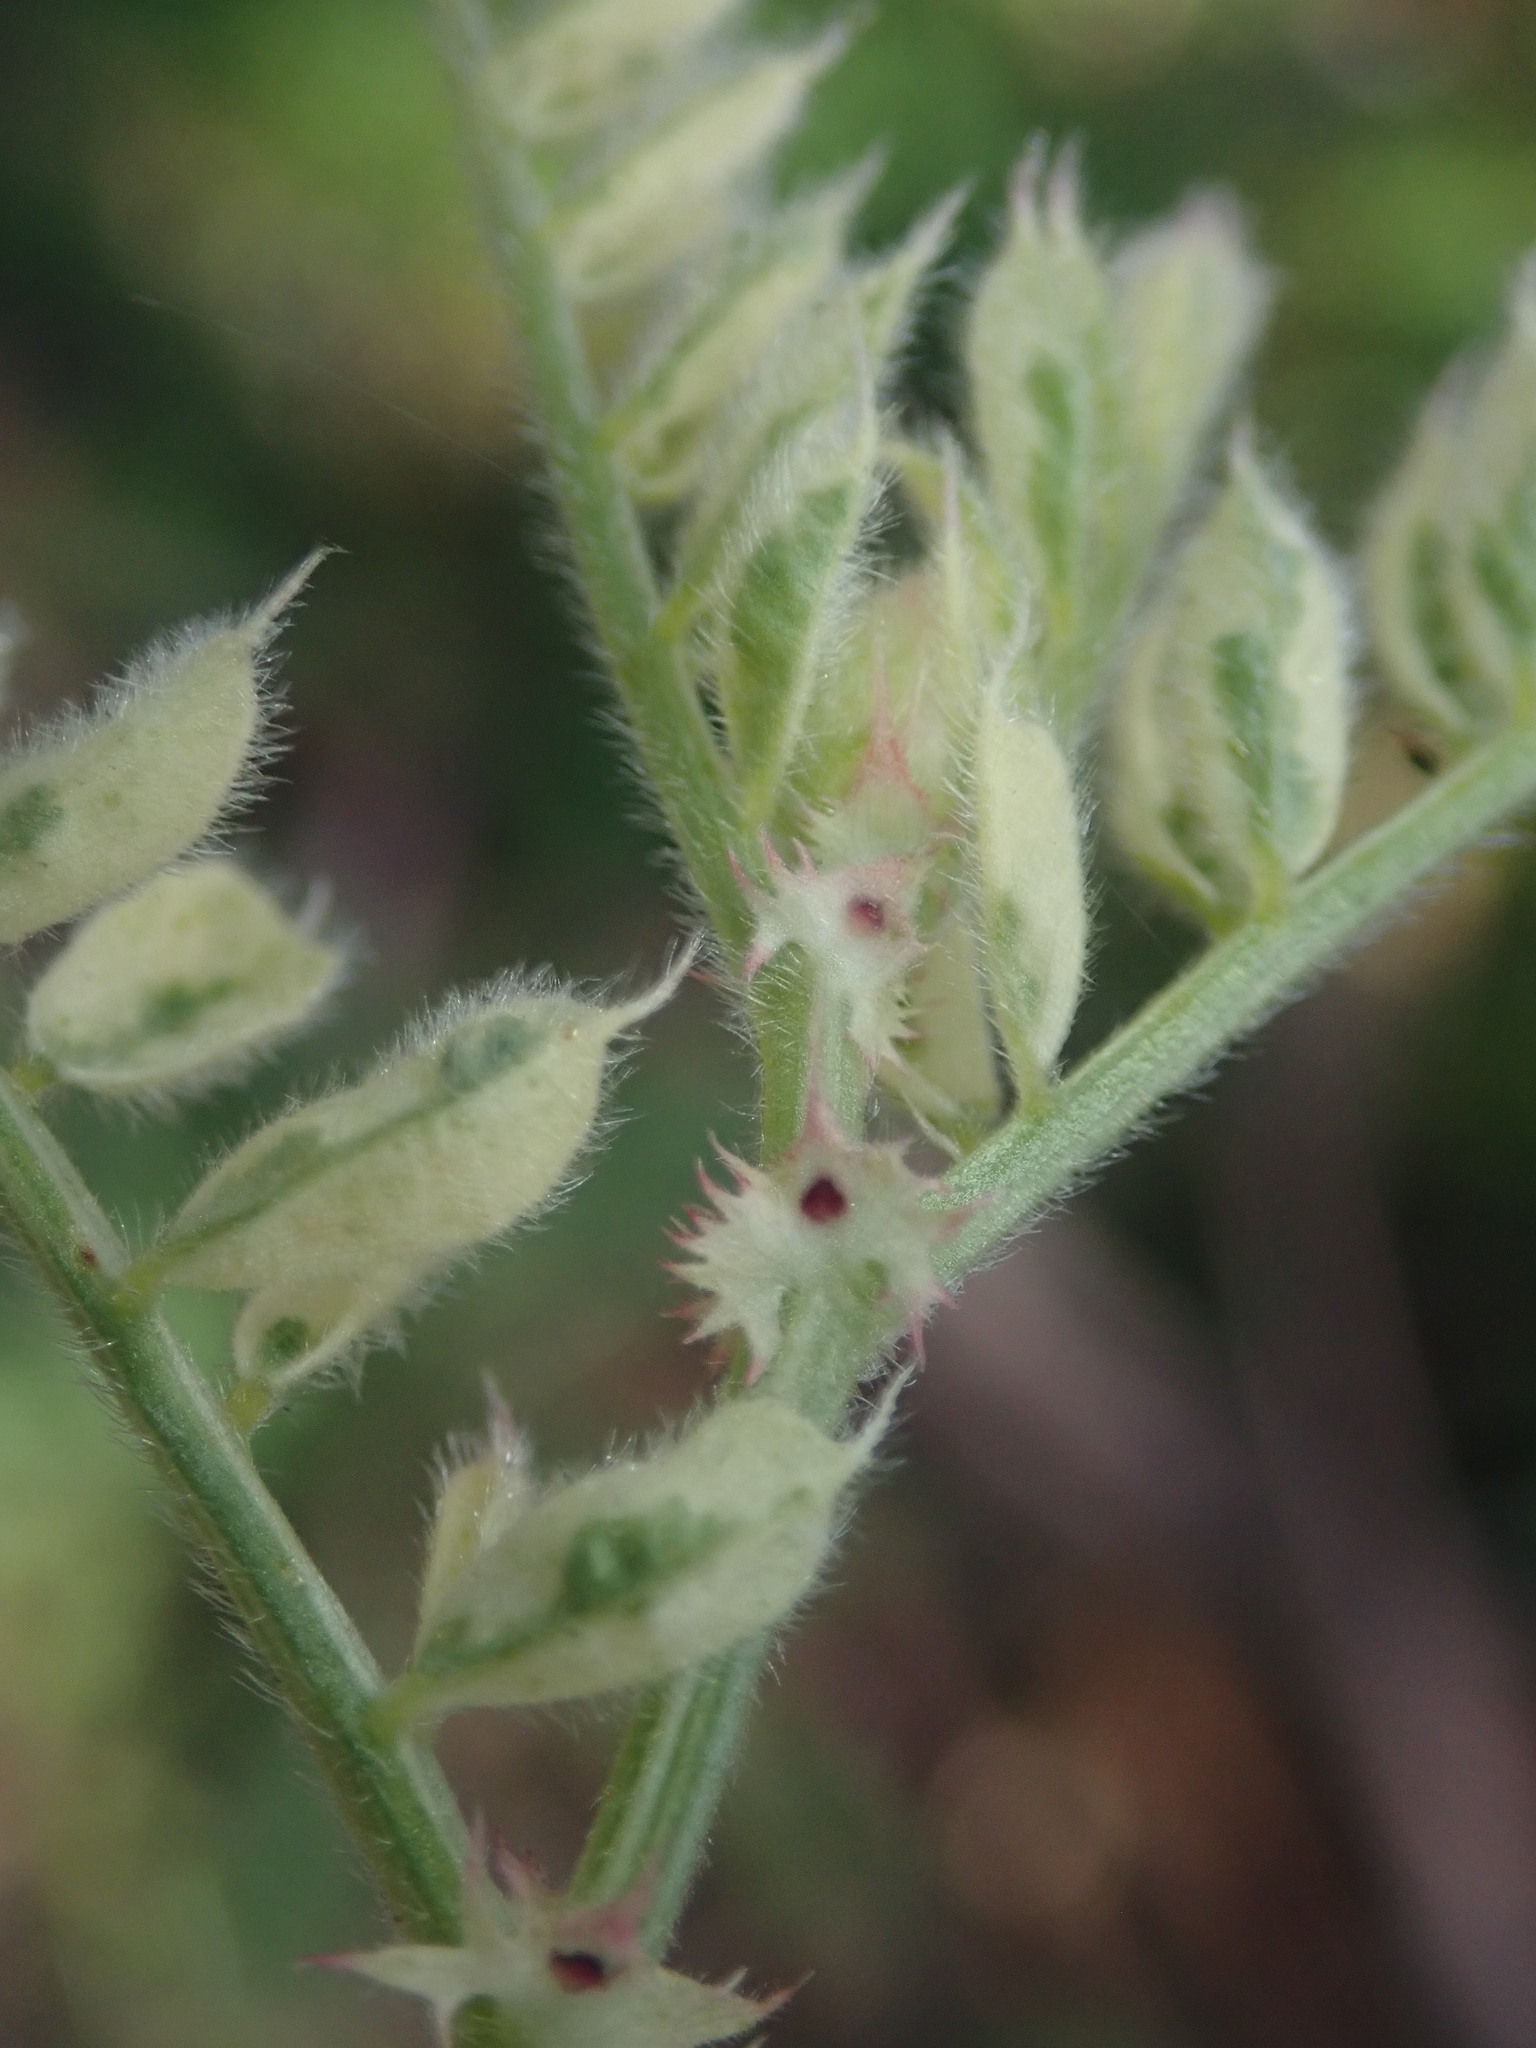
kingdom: Plantae
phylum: Tracheophyta
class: Magnoliopsida
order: Fabales
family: Fabaceae
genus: Vicia
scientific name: Vicia sativa
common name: Garden vetch
